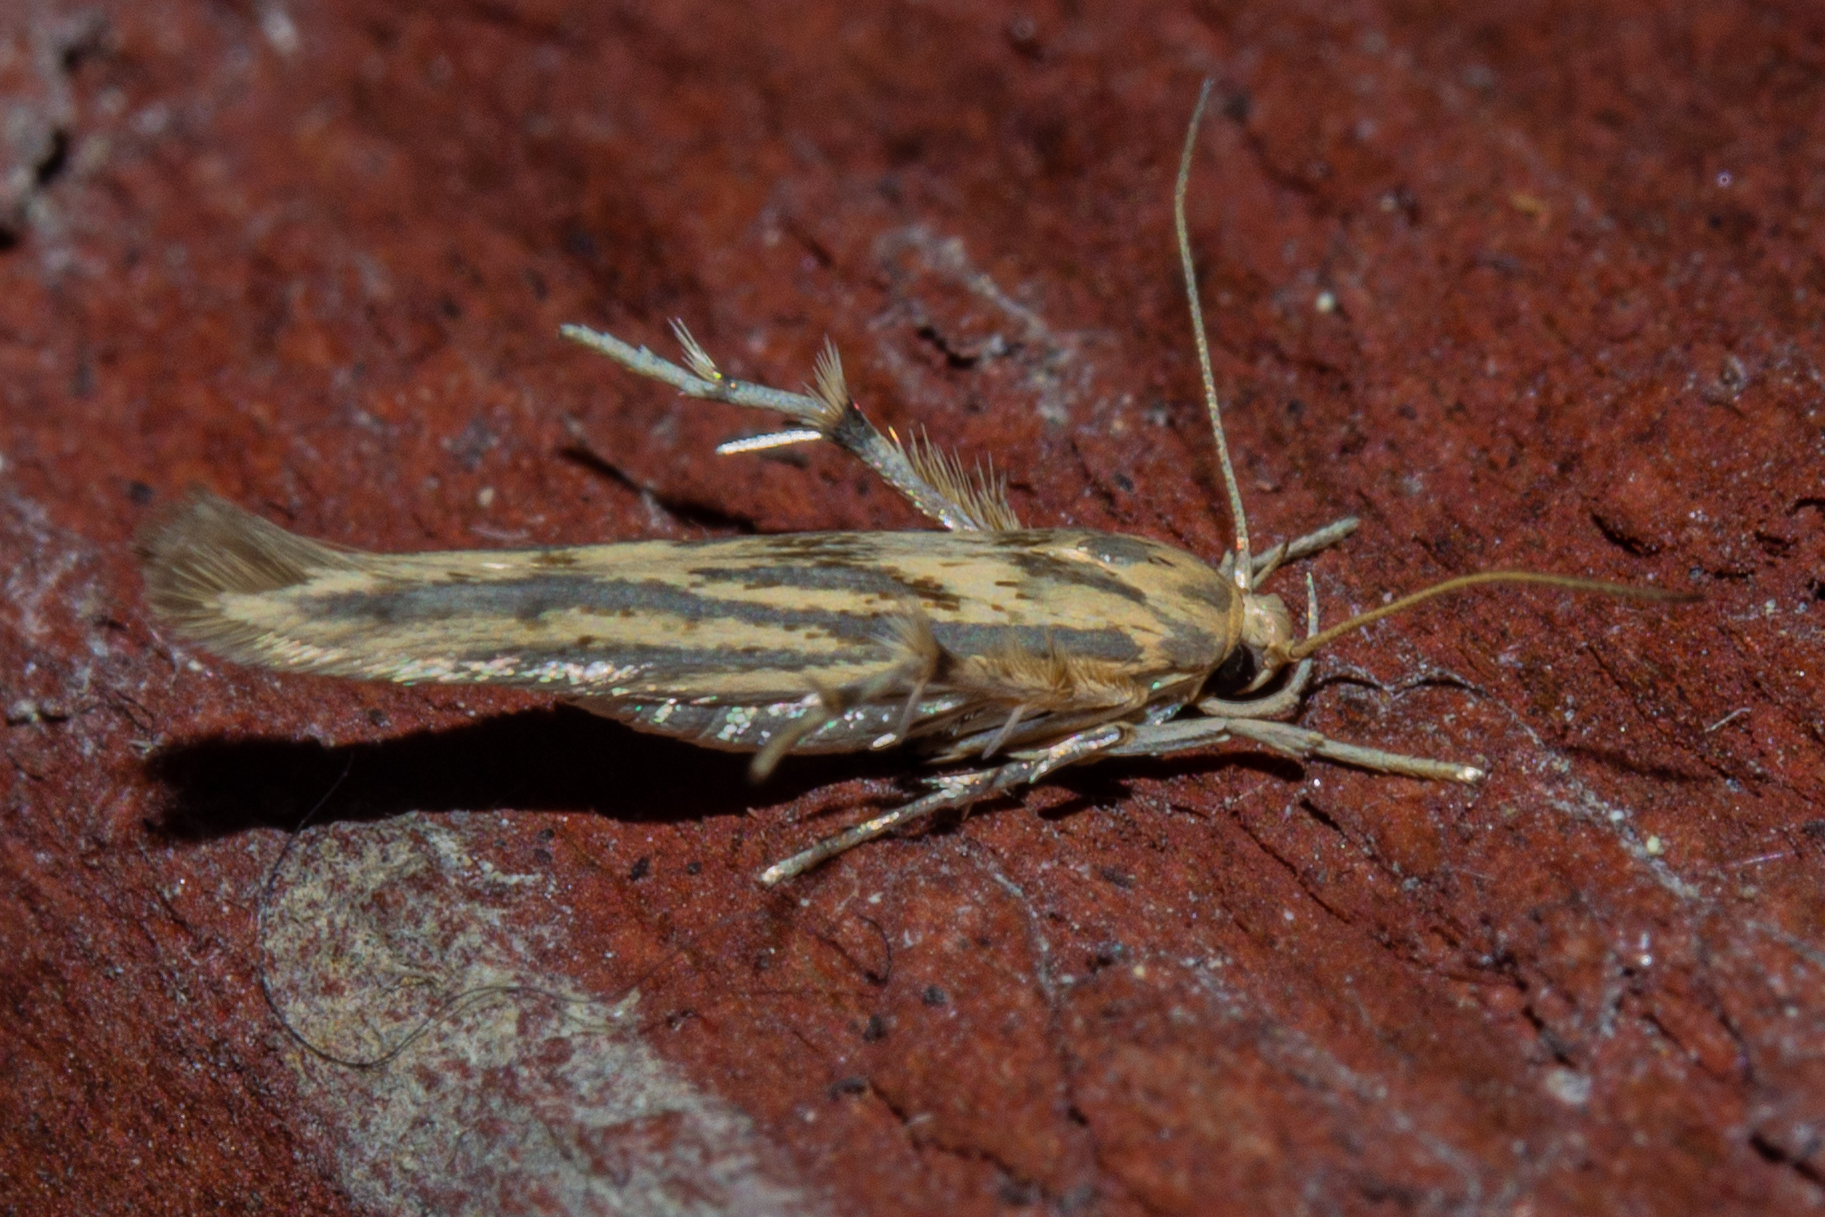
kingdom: Animalia
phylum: Arthropoda
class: Insecta
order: Lepidoptera
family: Stathmopodidae
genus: Stathmopoda
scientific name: Stathmopoda plumbiflua
